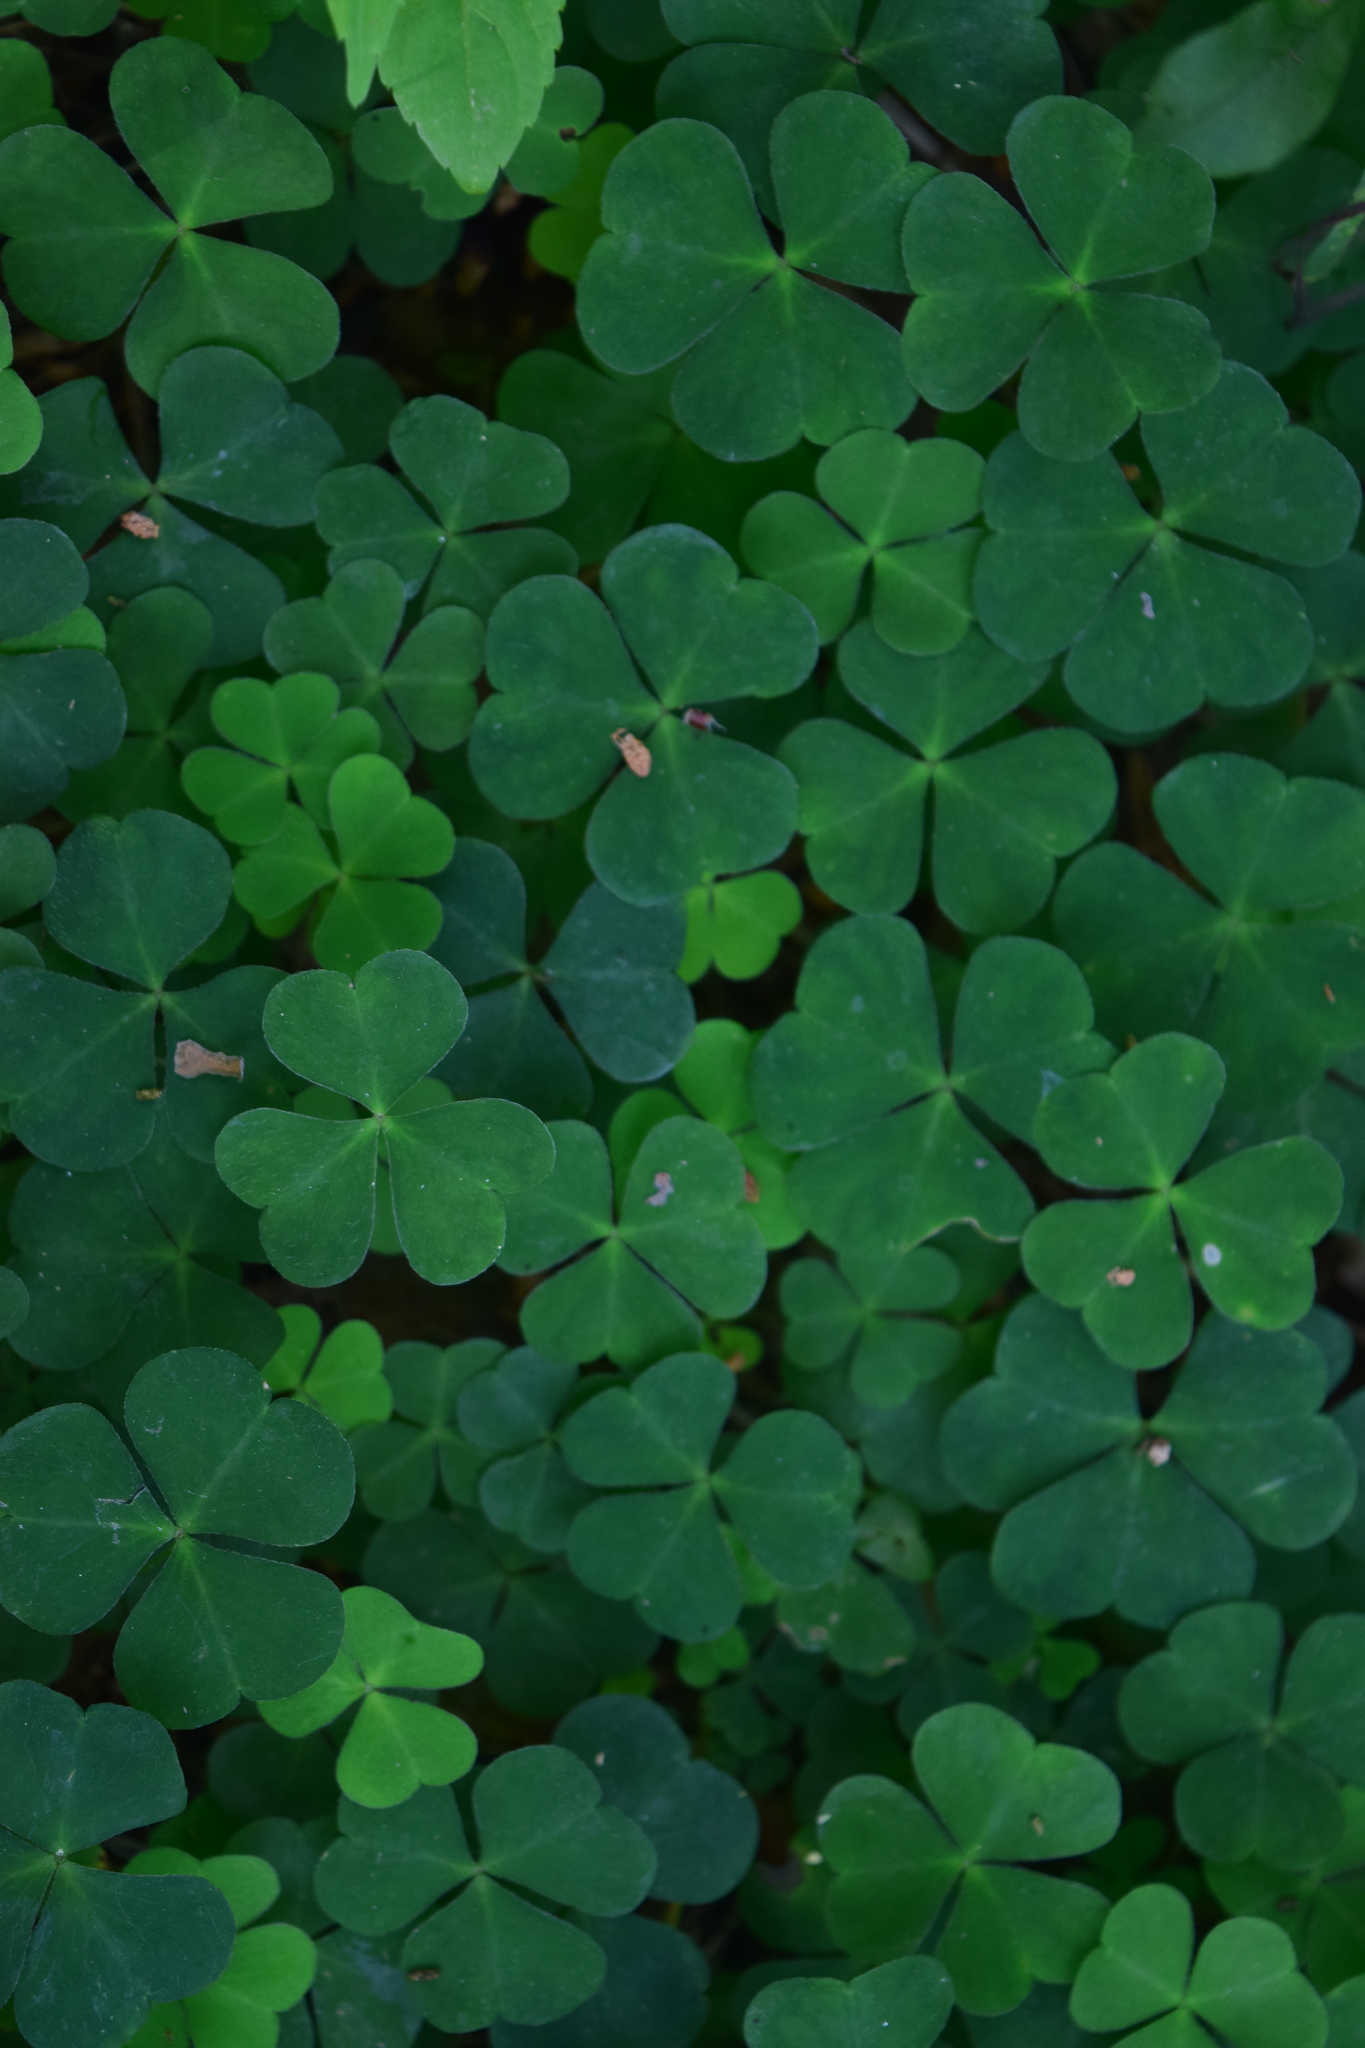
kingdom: Plantae
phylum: Tracheophyta
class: Magnoliopsida
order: Oxalidales
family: Oxalidaceae
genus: Oxalis
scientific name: Oxalis acetosella
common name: Wood-sorrel
